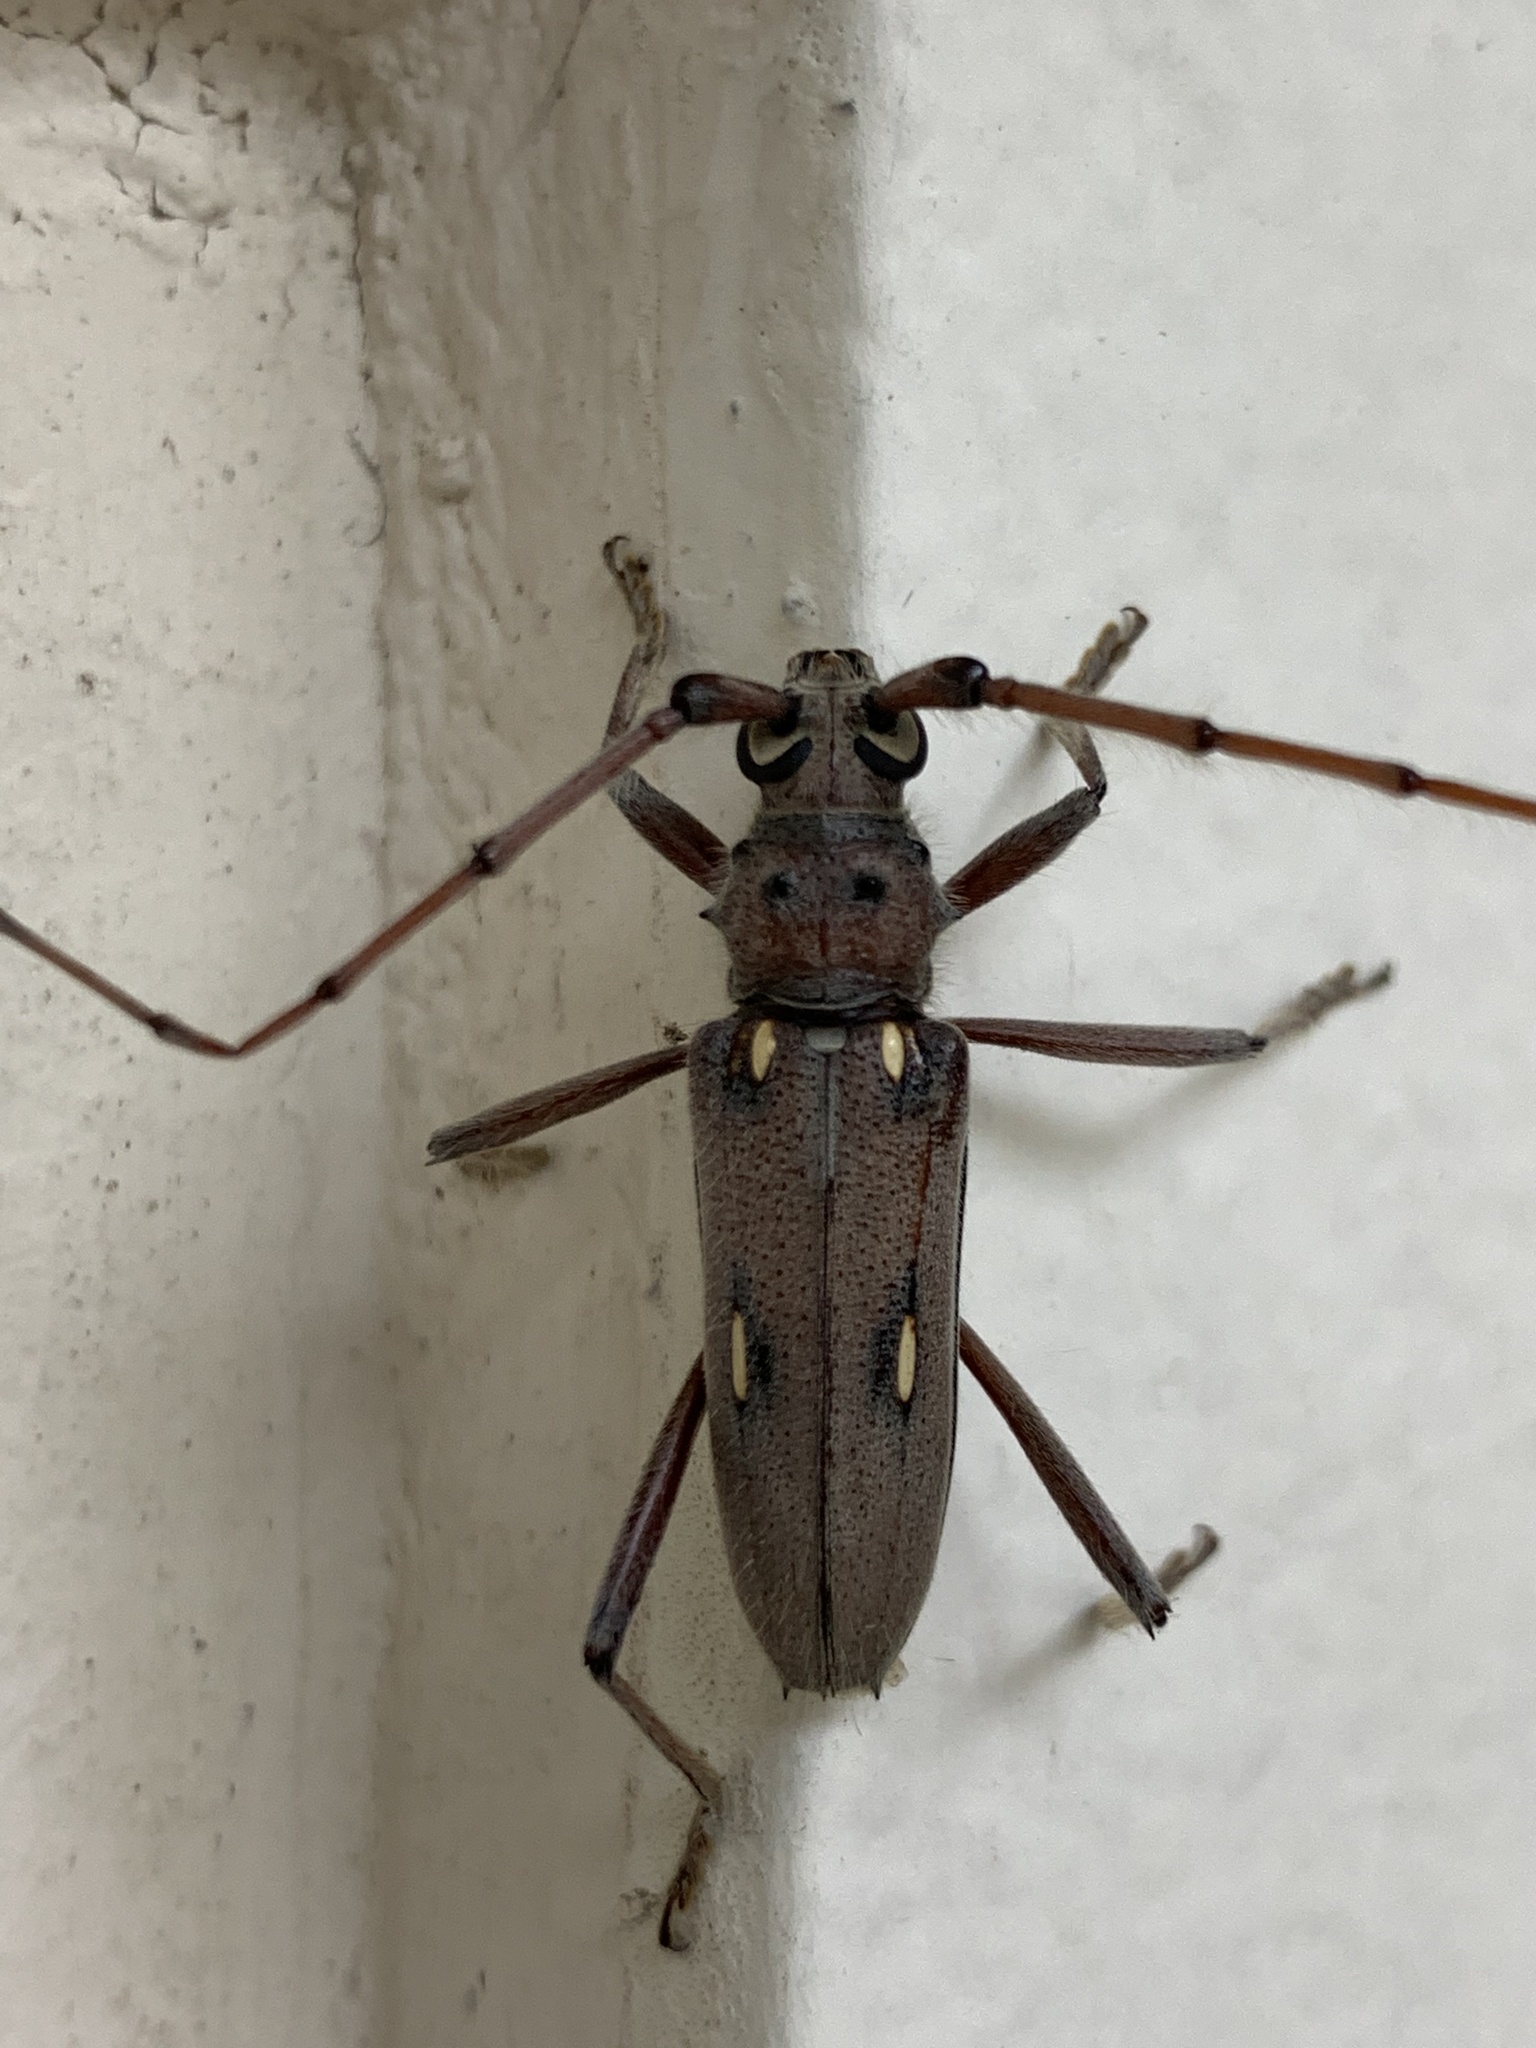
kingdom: Animalia
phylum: Arthropoda
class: Insecta
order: Coleoptera
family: Cerambycidae
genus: Eburia
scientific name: Eburia pilosa
